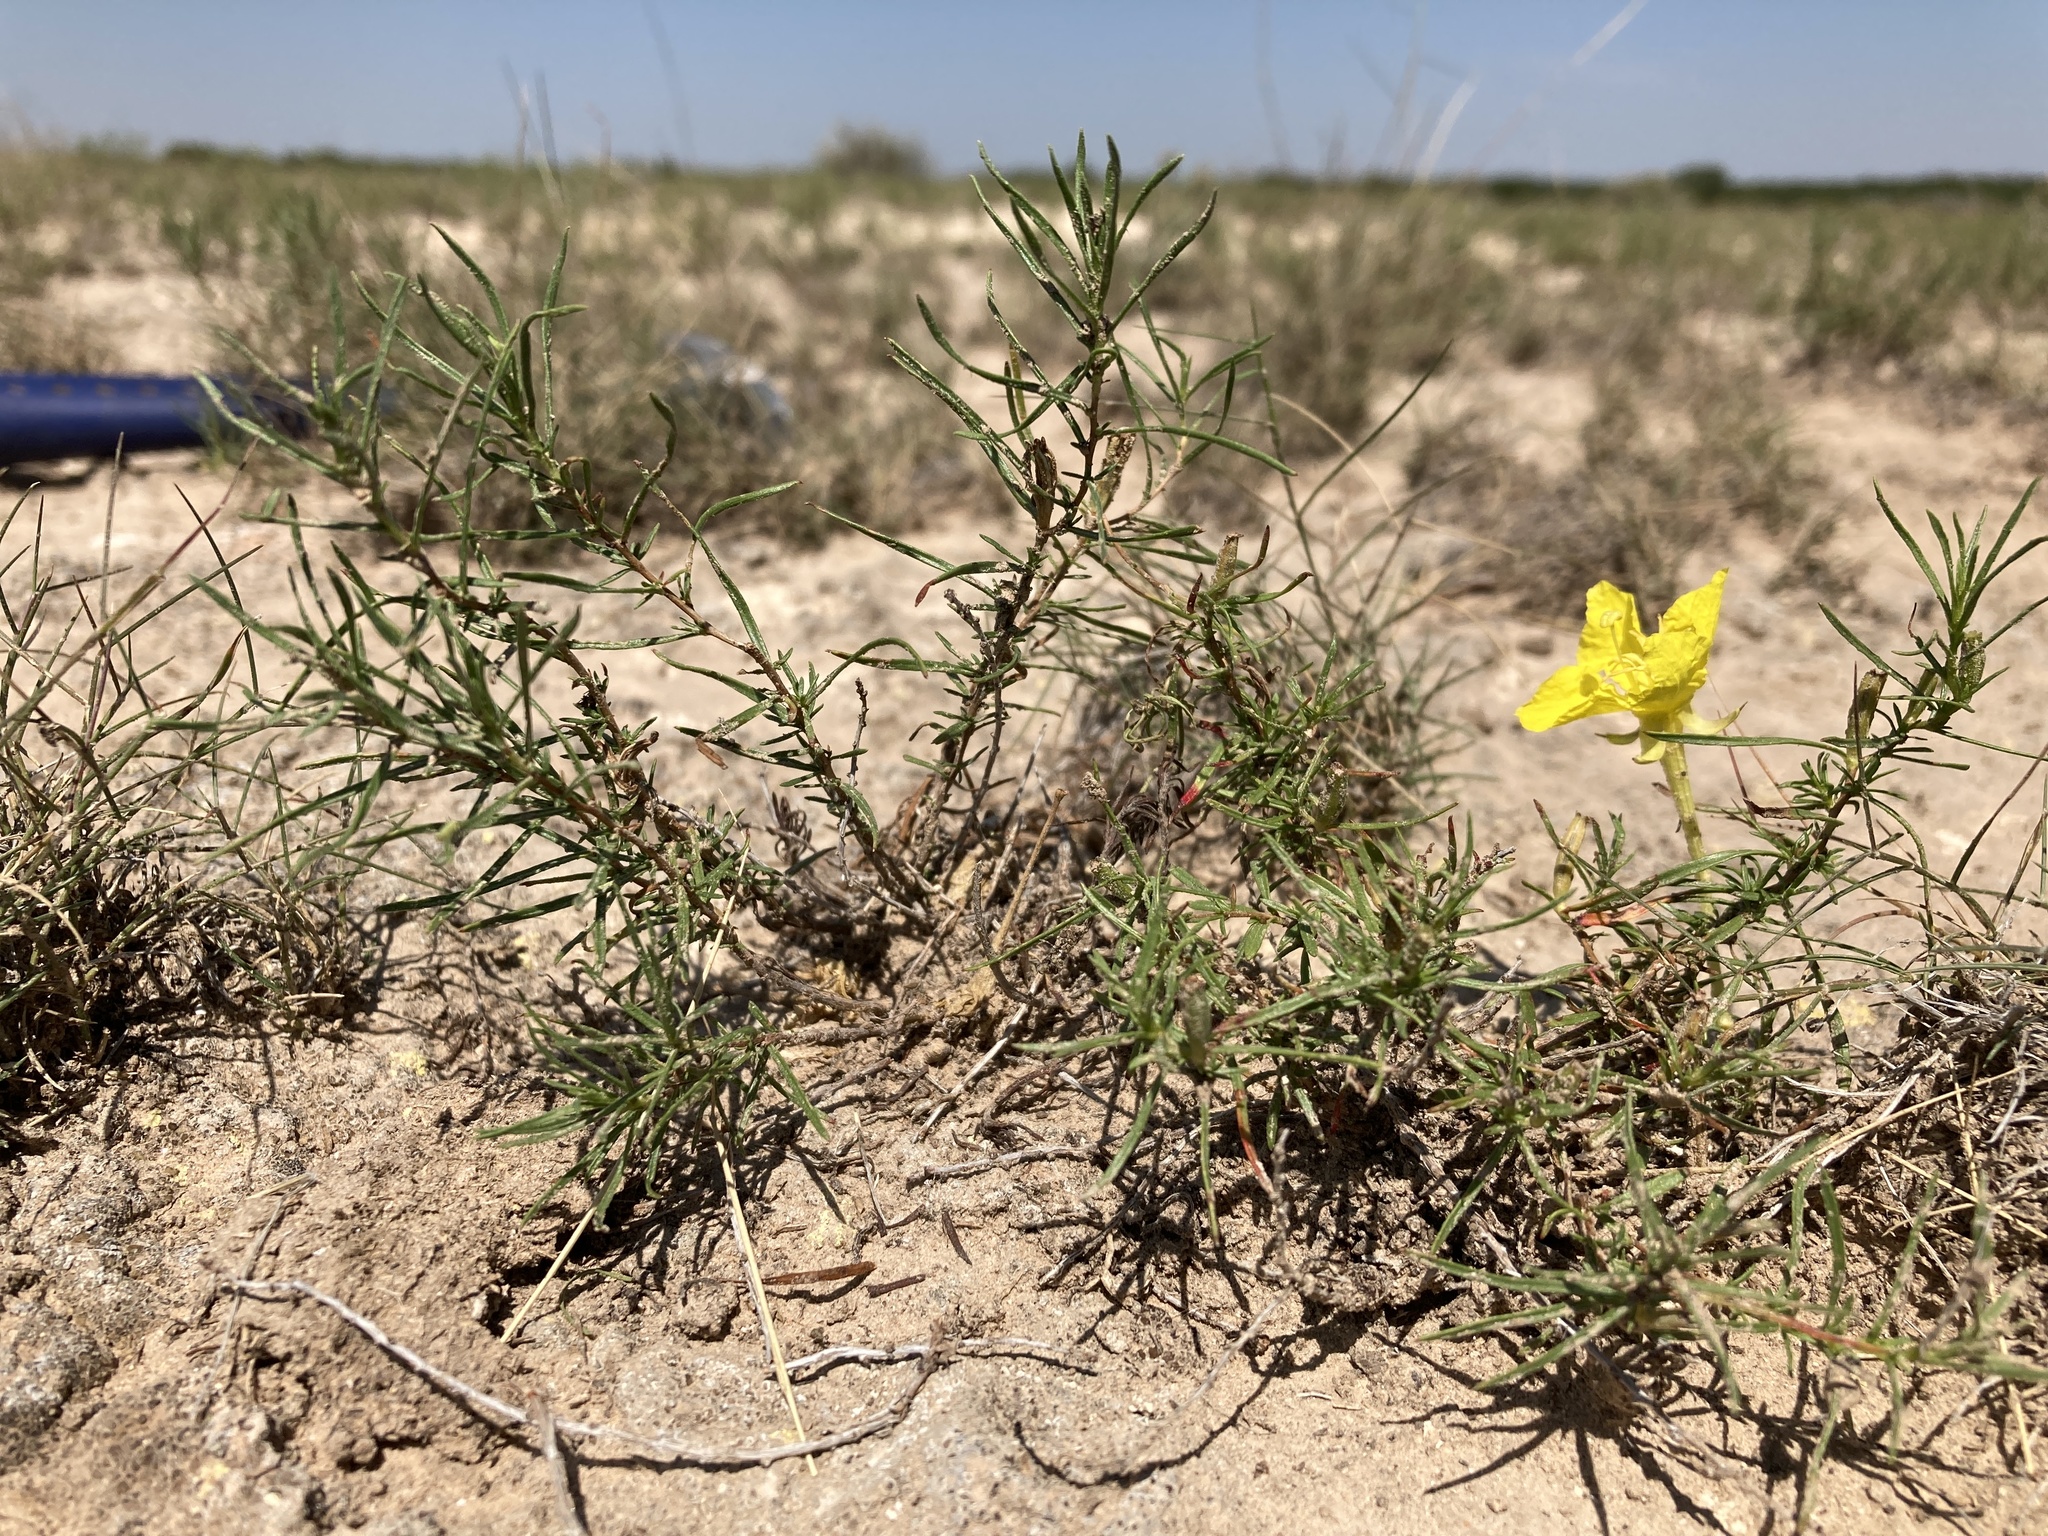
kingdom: Plantae
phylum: Tracheophyta
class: Magnoliopsida
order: Myrtales
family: Onagraceae
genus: Oenothera
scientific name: Oenothera hartwegii
